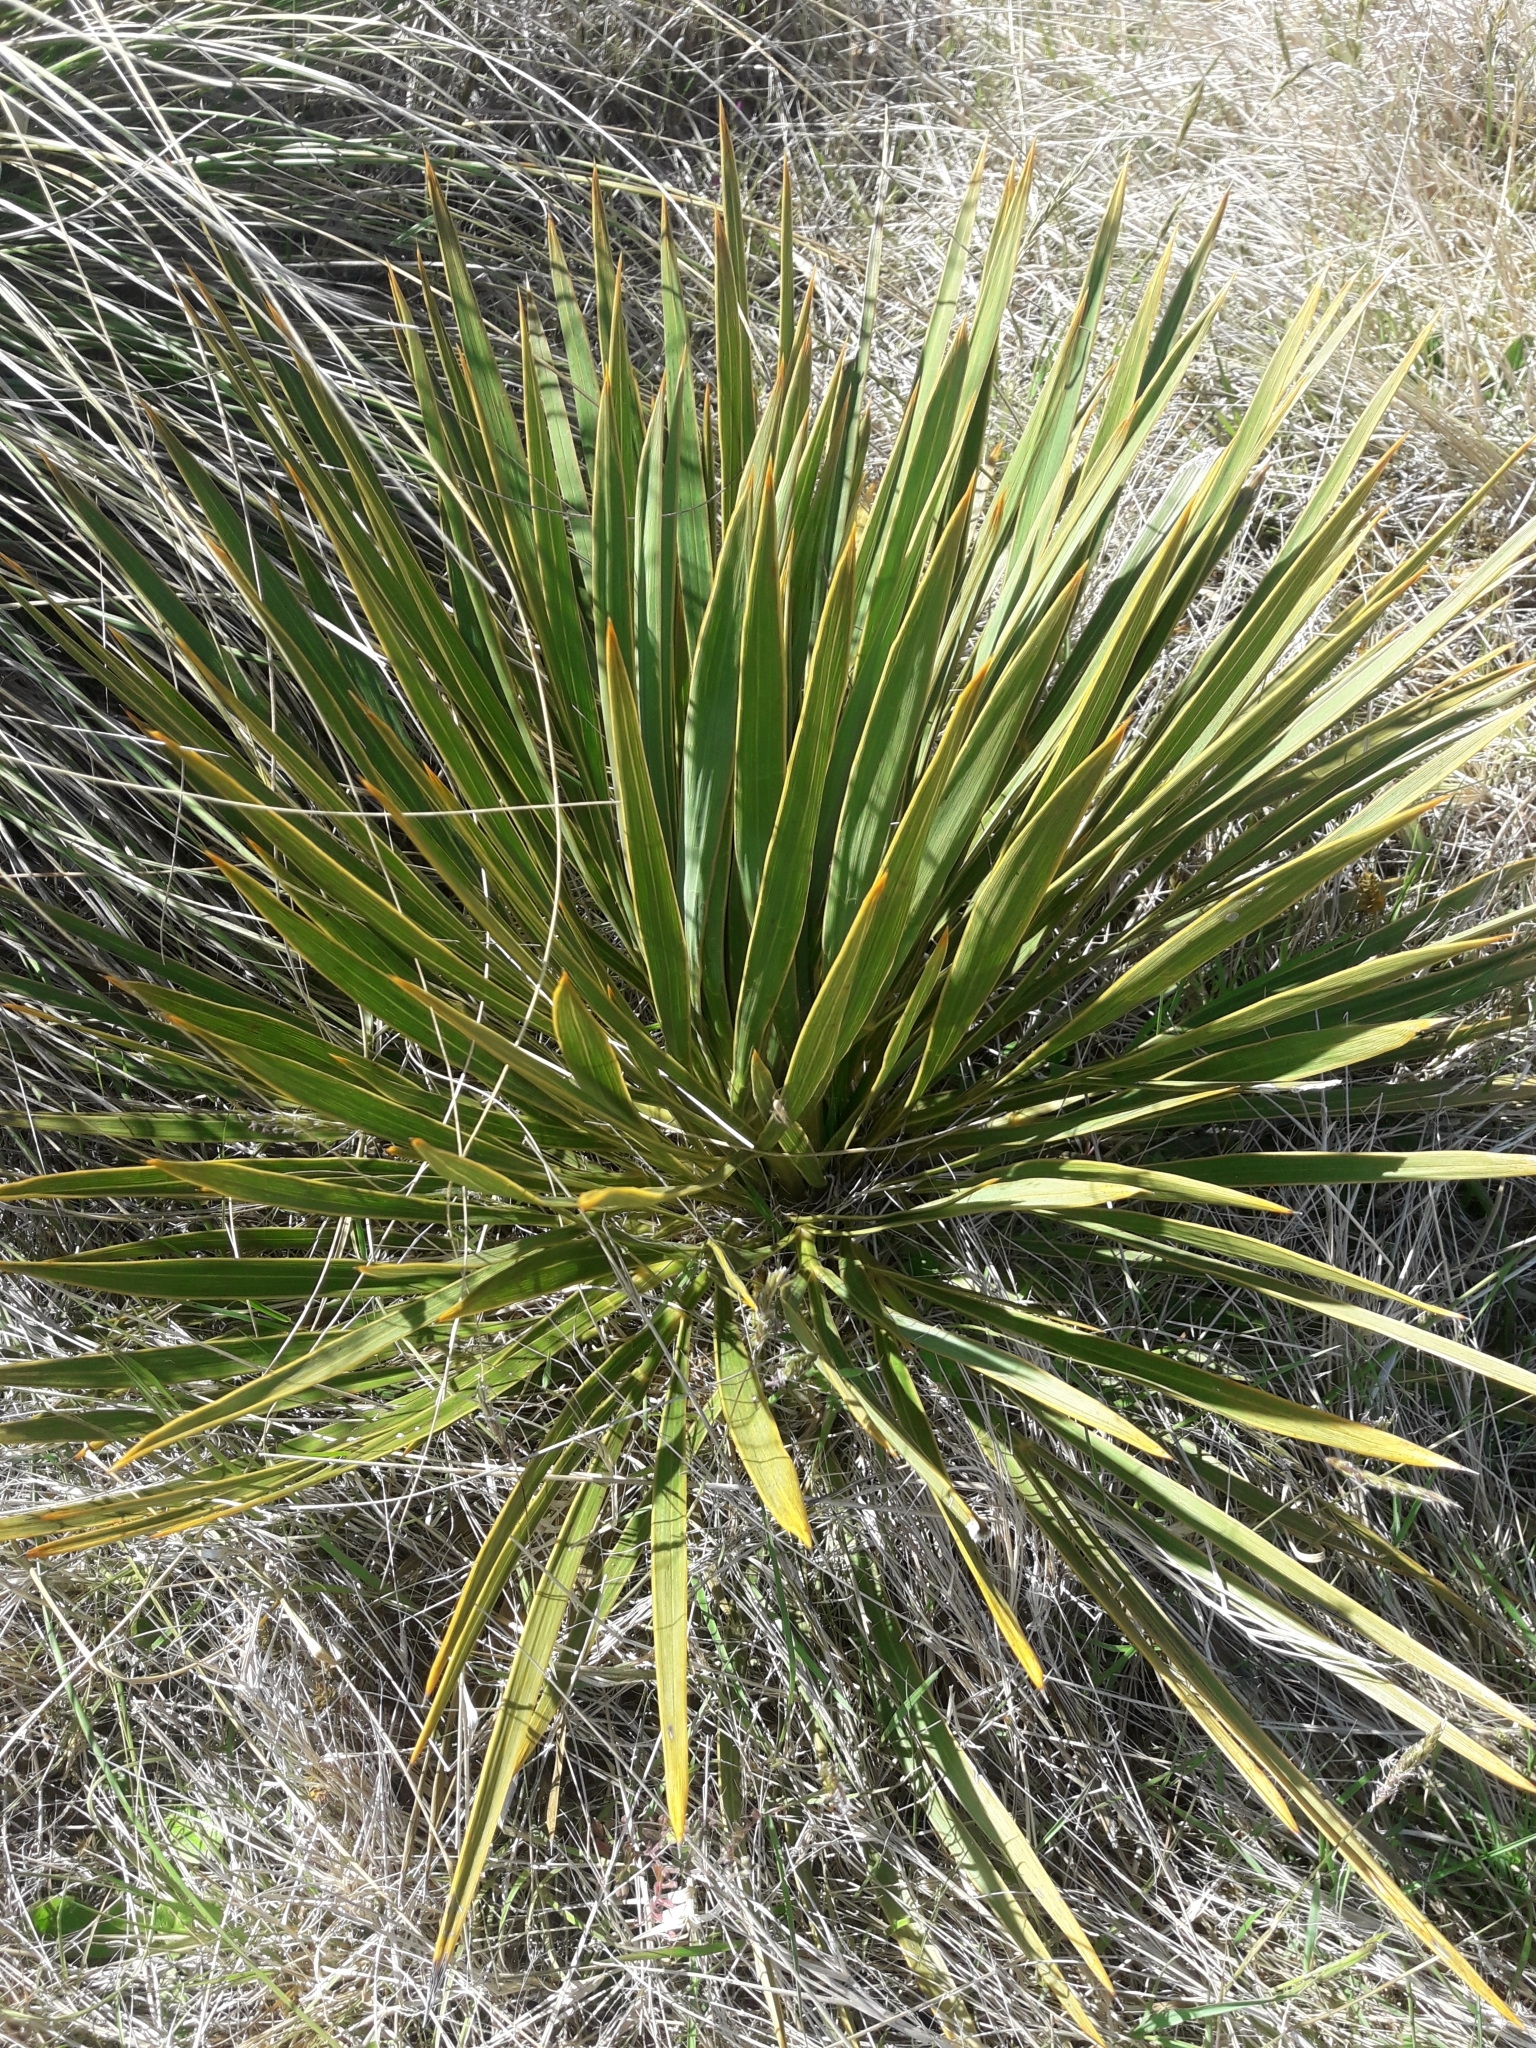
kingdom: Plantae
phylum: Tracheophyta
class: Magnoliopsida
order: Apiales
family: Apiaceae
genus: Aciphylla
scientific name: Aciphylla aurea
